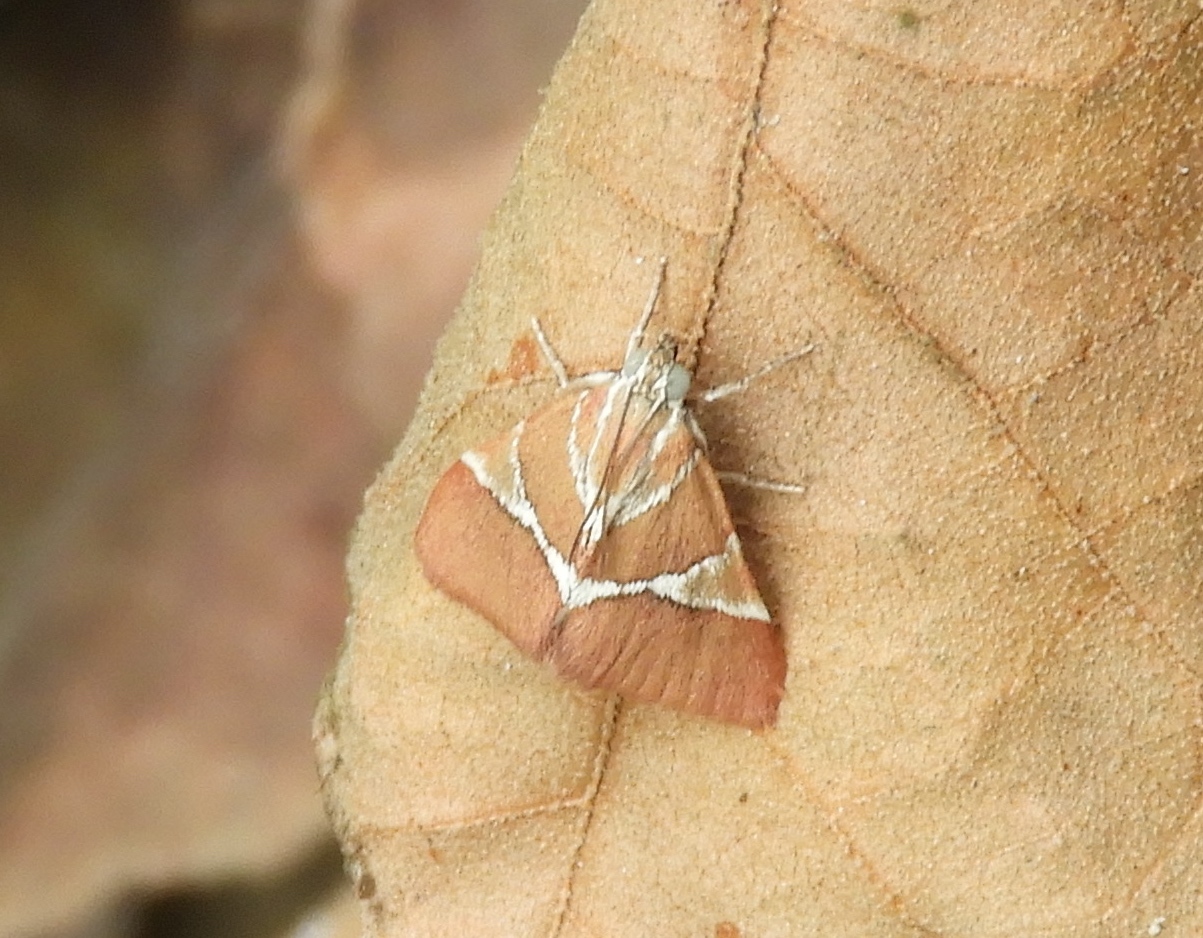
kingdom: Animalia
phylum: Arthropoda
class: Insecta
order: Lepidoptera
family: Crambidae
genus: Jativa
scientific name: Jativa castanealis
